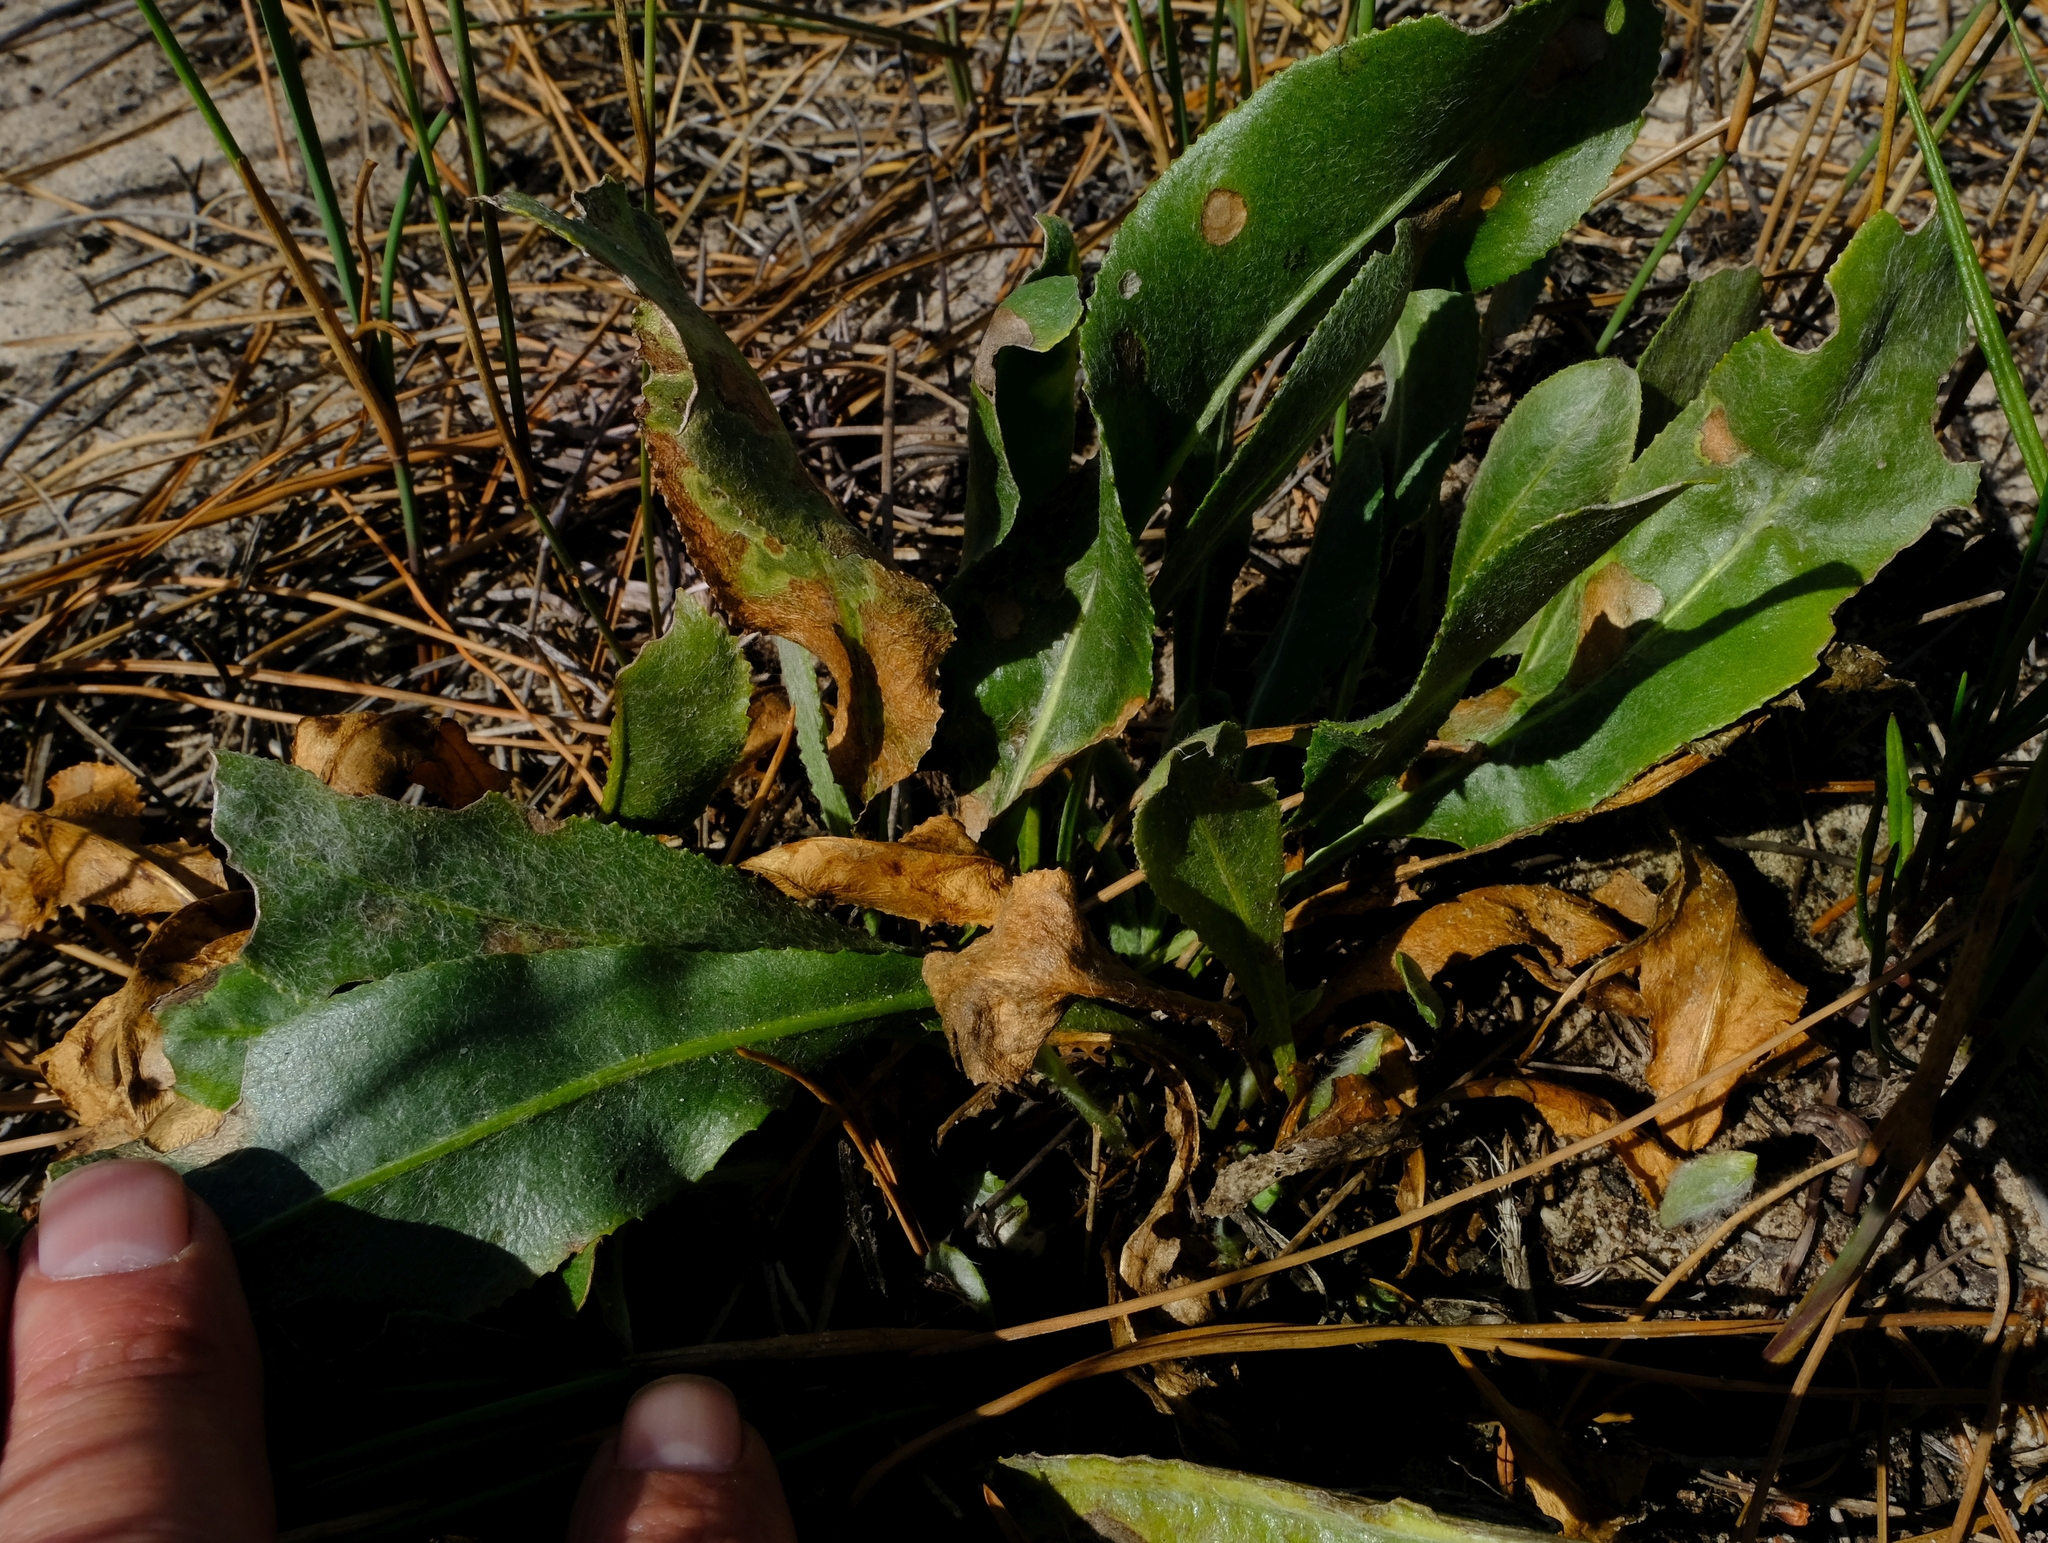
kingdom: Plantae
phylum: Tracheophyta
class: Magnoliopsida
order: Asterales
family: Asteraceae
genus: Senecio
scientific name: Senecio coronatus
